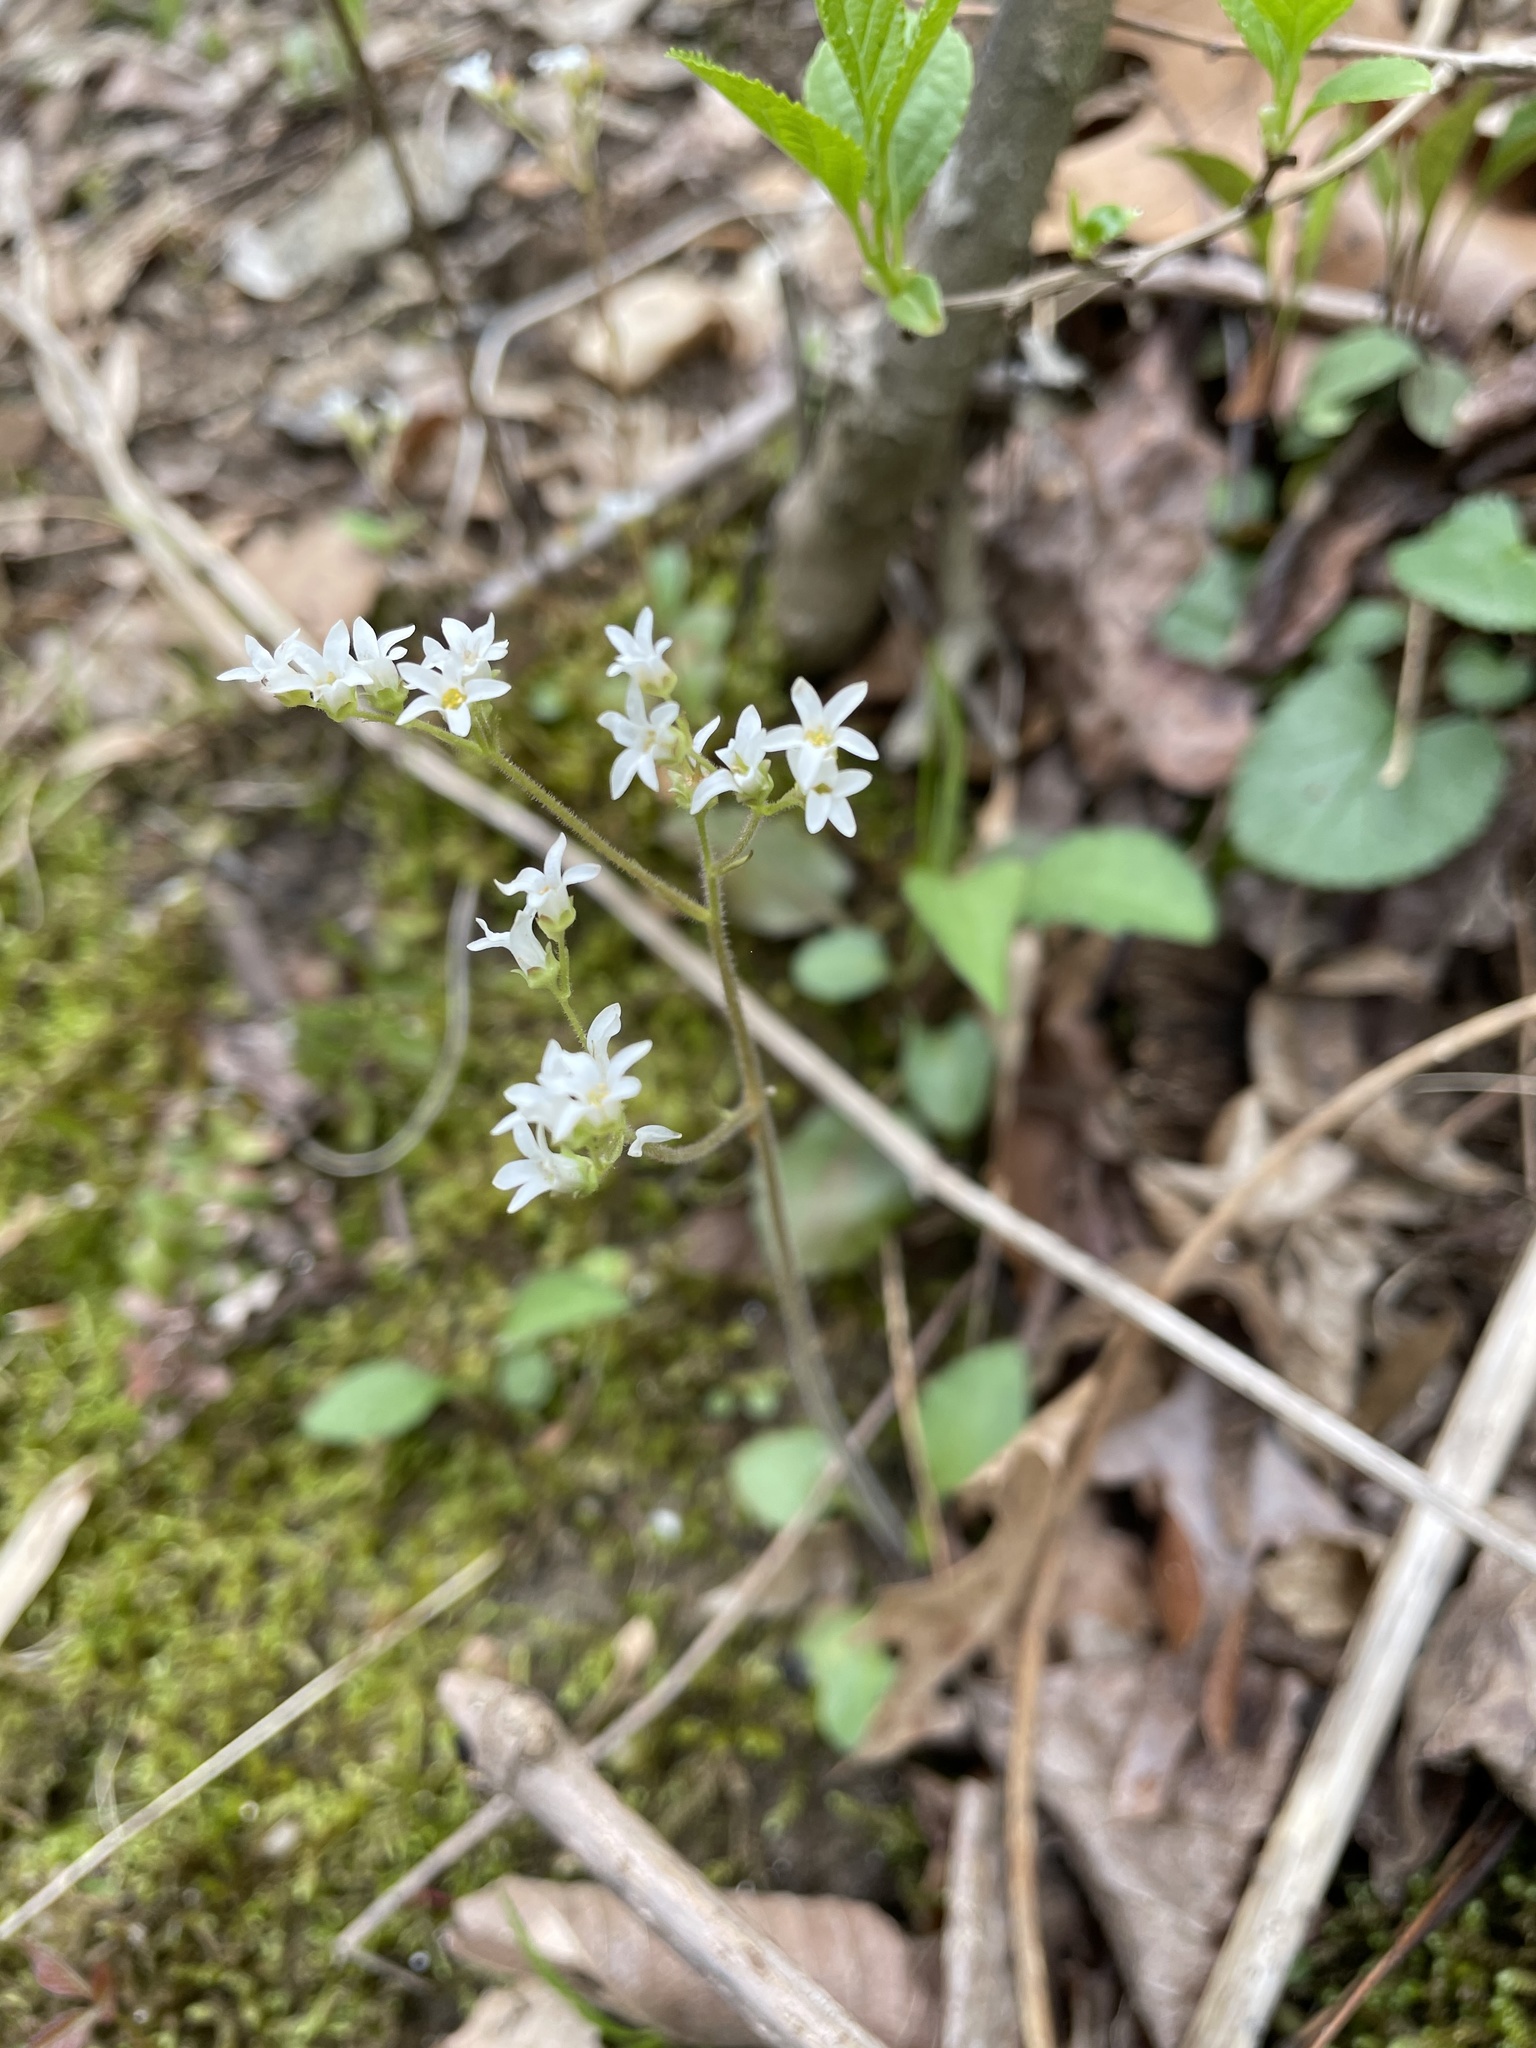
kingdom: Plantae
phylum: Tracheophyta
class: Magnoliopsida
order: Saxifragales
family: Saxifragaceae
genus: Micranthes
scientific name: Micranthes virginiensis
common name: Early saxifrage
